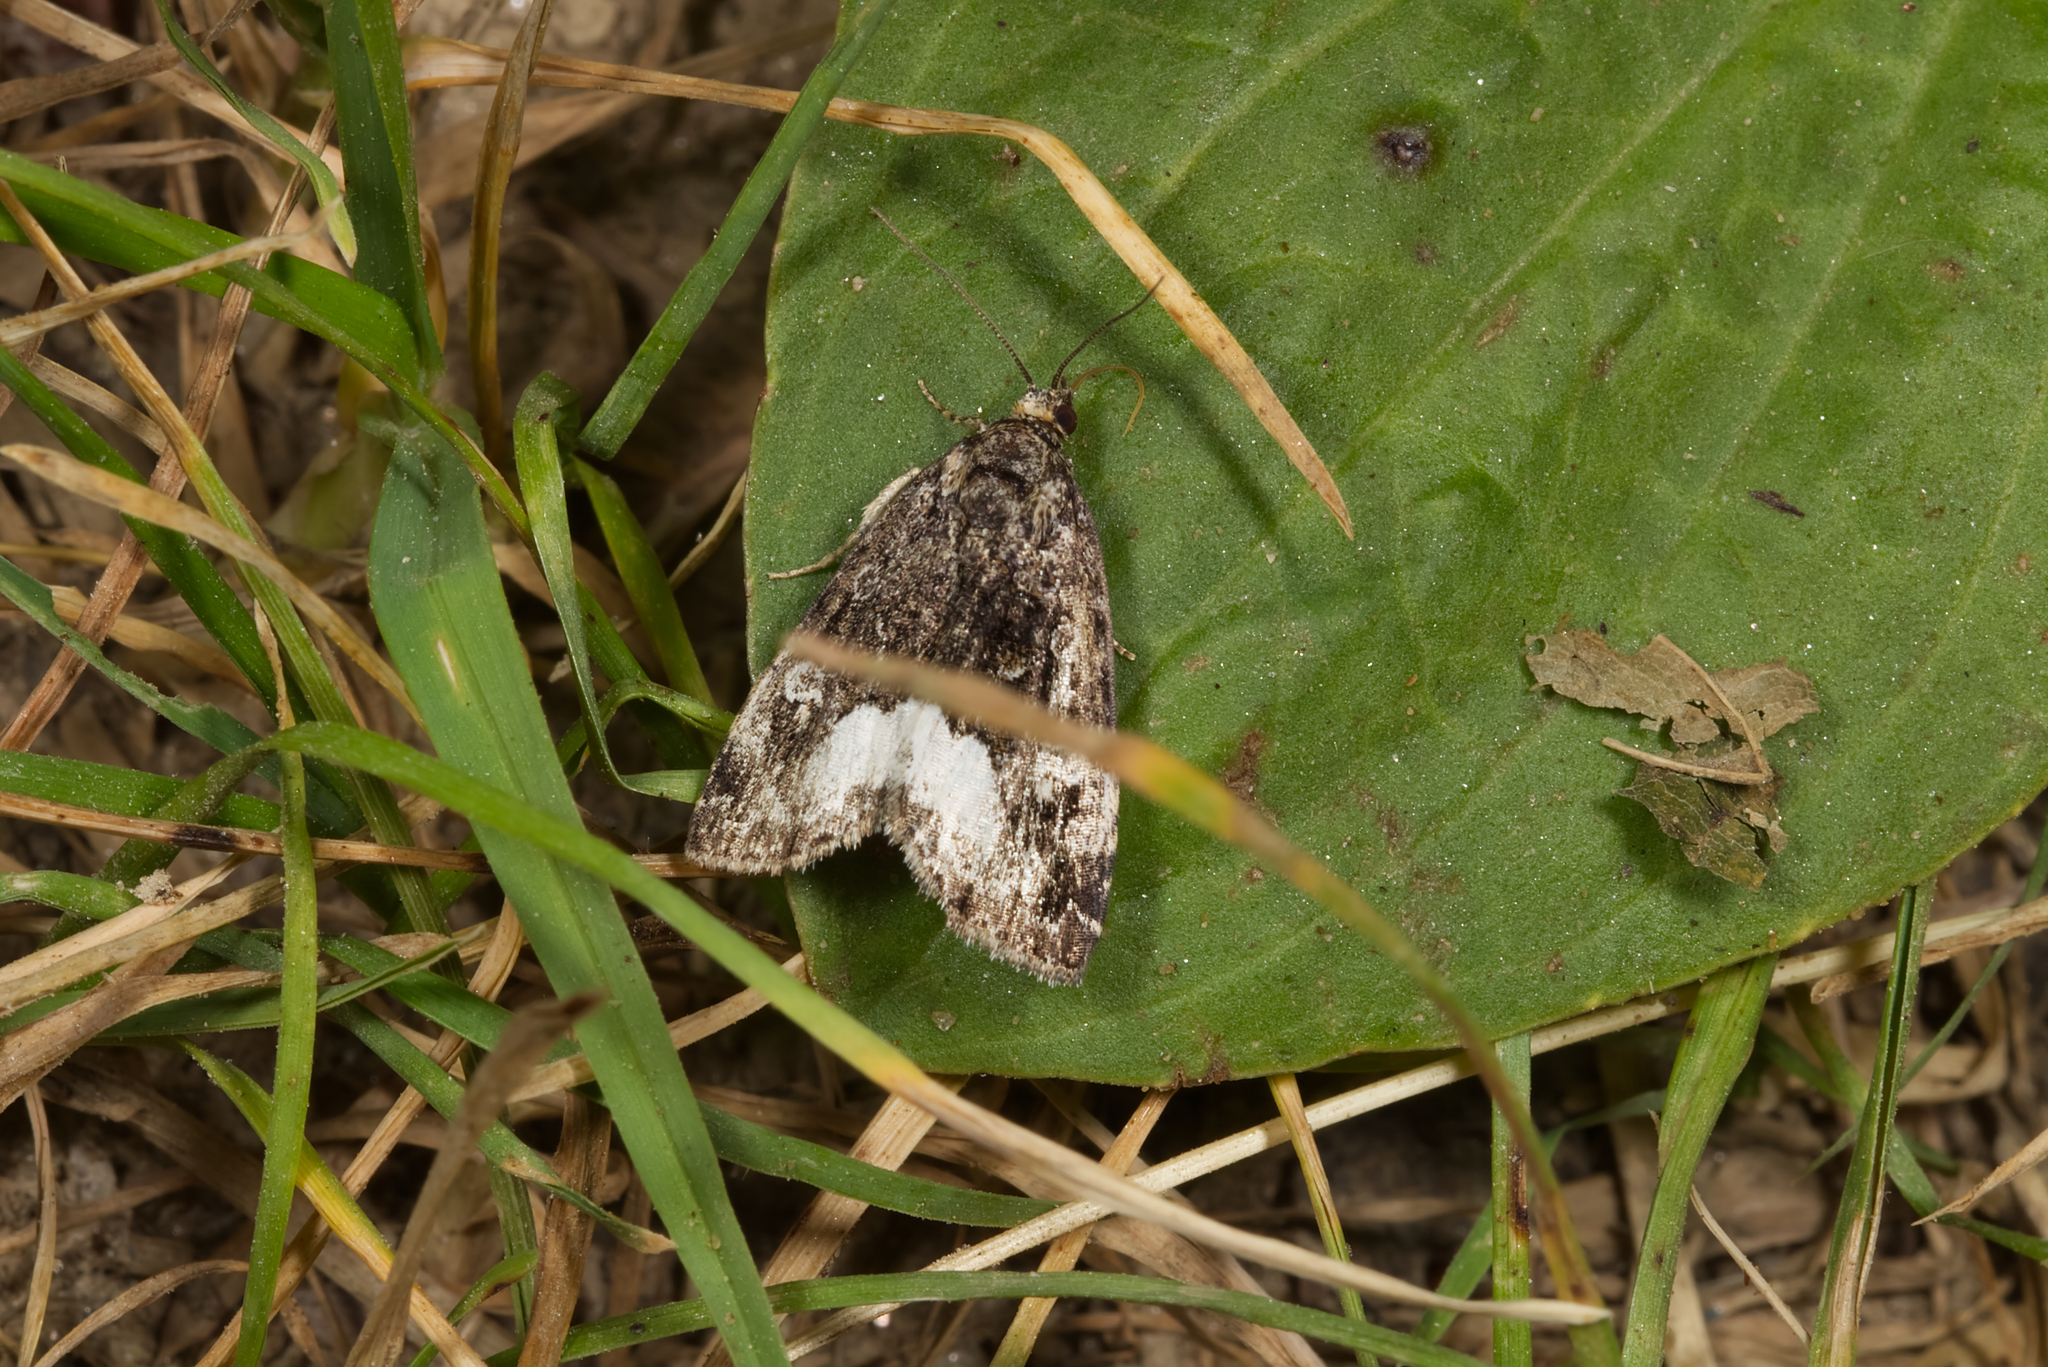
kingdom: Animalia
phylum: Arthropoda
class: Insecta
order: Lepidoptera
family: Noctuidae
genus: Deltote
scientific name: Deltote pygarga
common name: Marbled white spot
